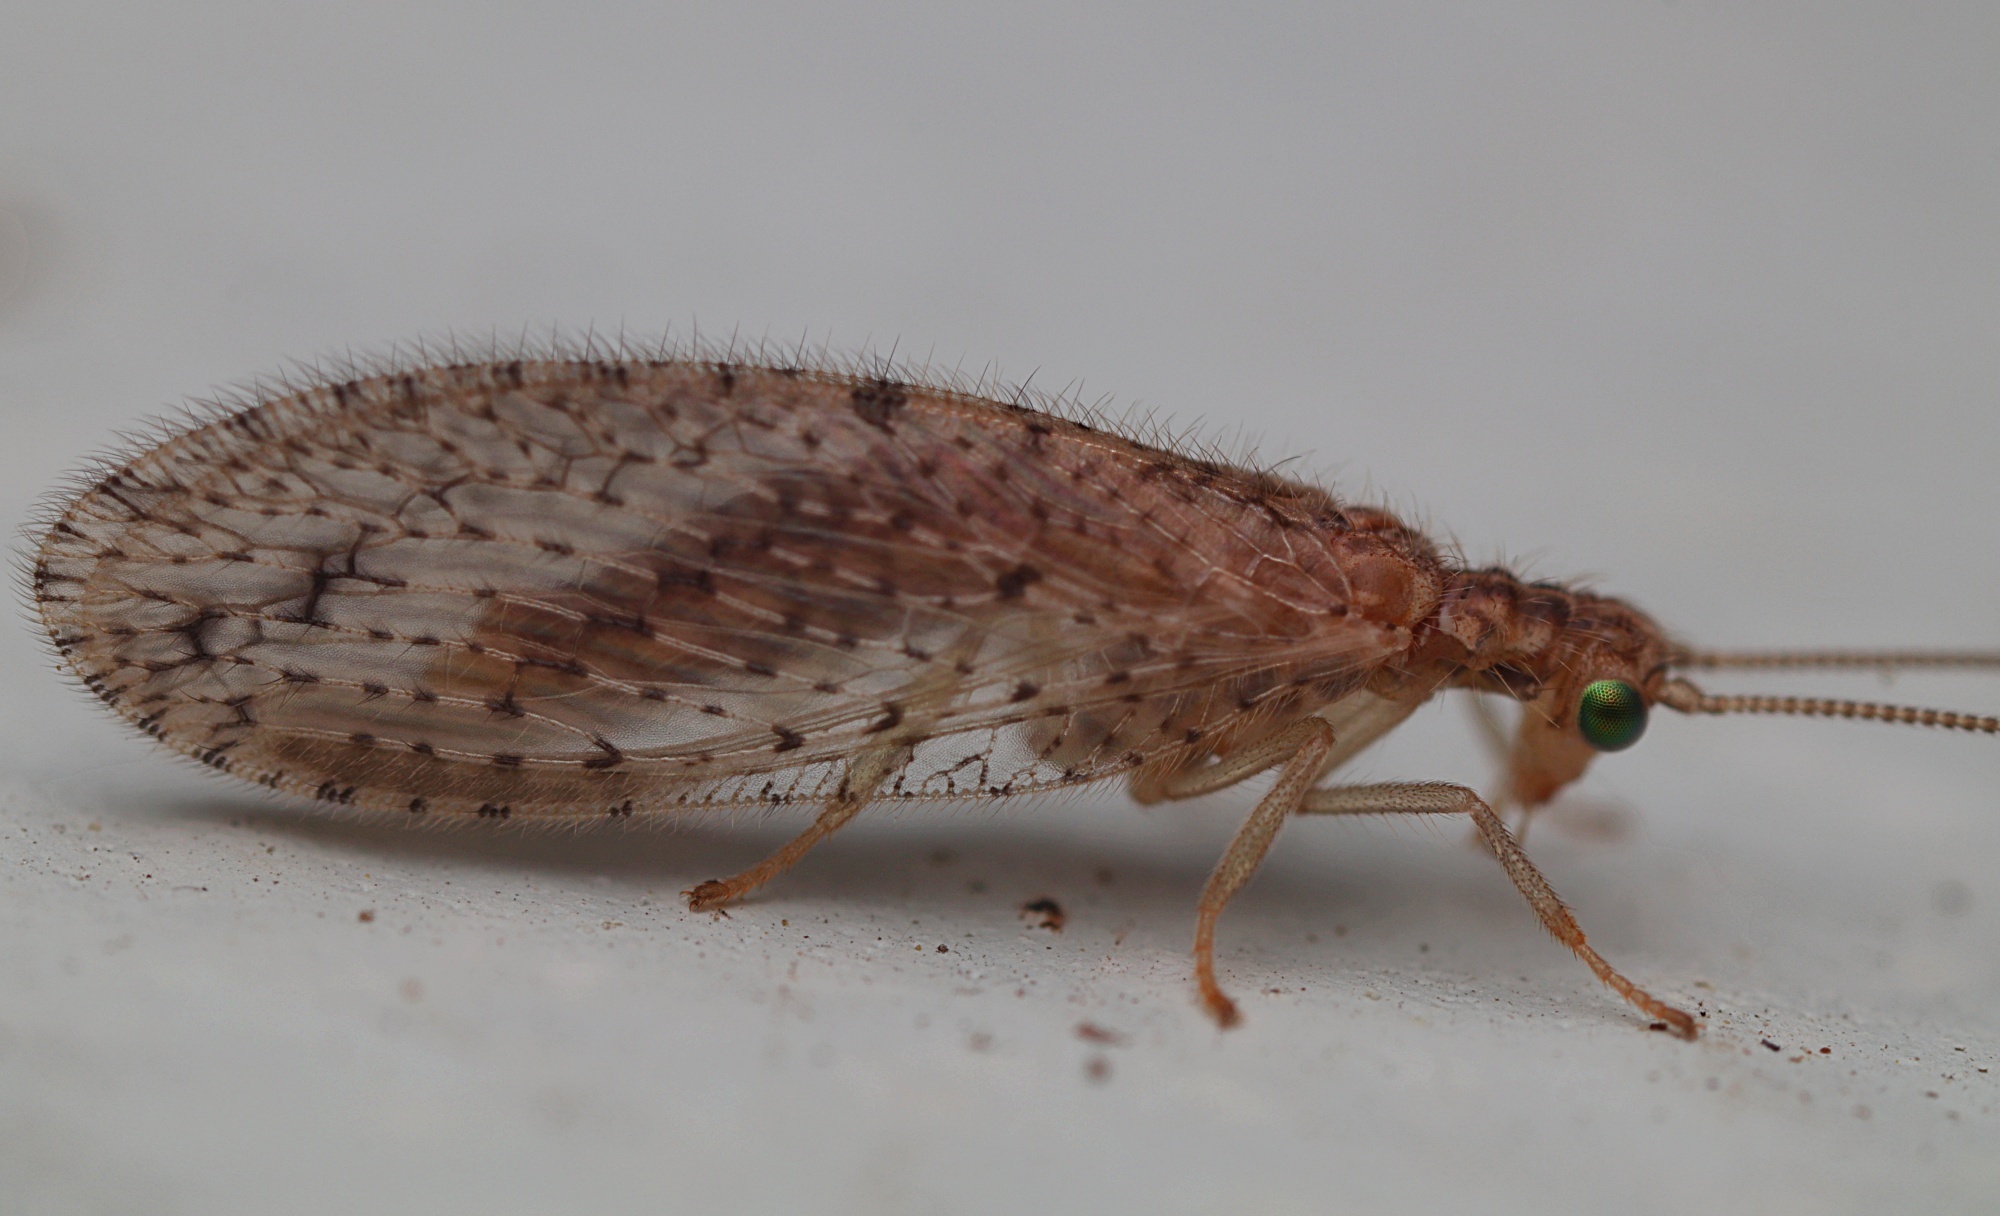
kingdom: Animalia
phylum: Arthropoda
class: Insecta
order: Neuroptera
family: Hemerobiidae
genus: Micromus
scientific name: Micromus tasmaniae
